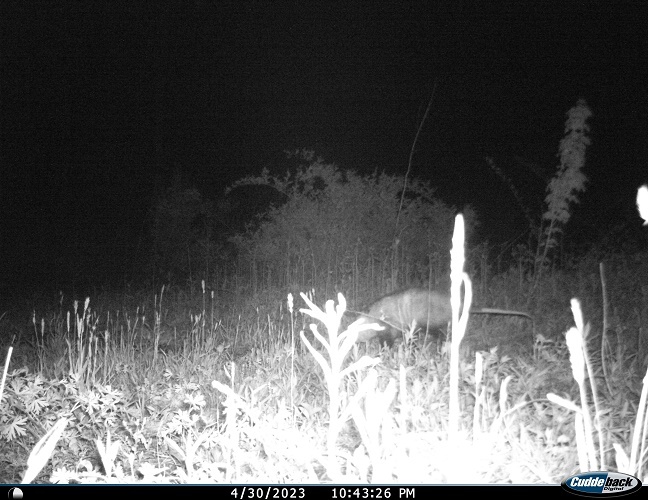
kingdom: Animalia
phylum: Chordata
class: Mammalia
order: Didelphimorphia
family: Didelphidae
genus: Didelphis
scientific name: Didelphis virginiana
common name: Virginia opossum
